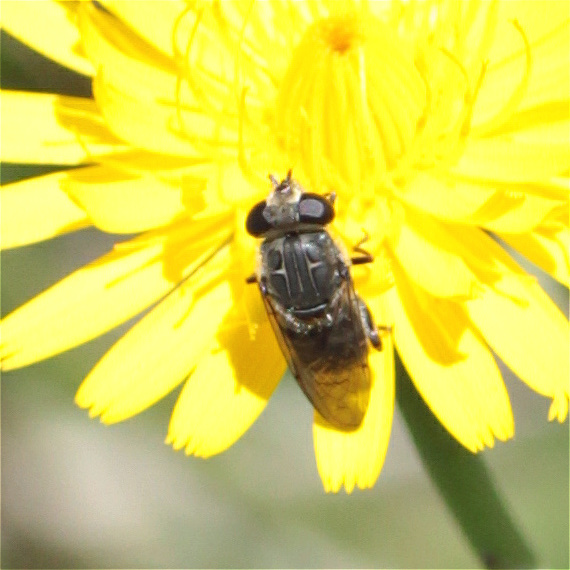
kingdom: Animalia
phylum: Arthropoda
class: Insecta
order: Diptera
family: Syrphidae
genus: Asemosyrphus
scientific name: Asemosyrphus
